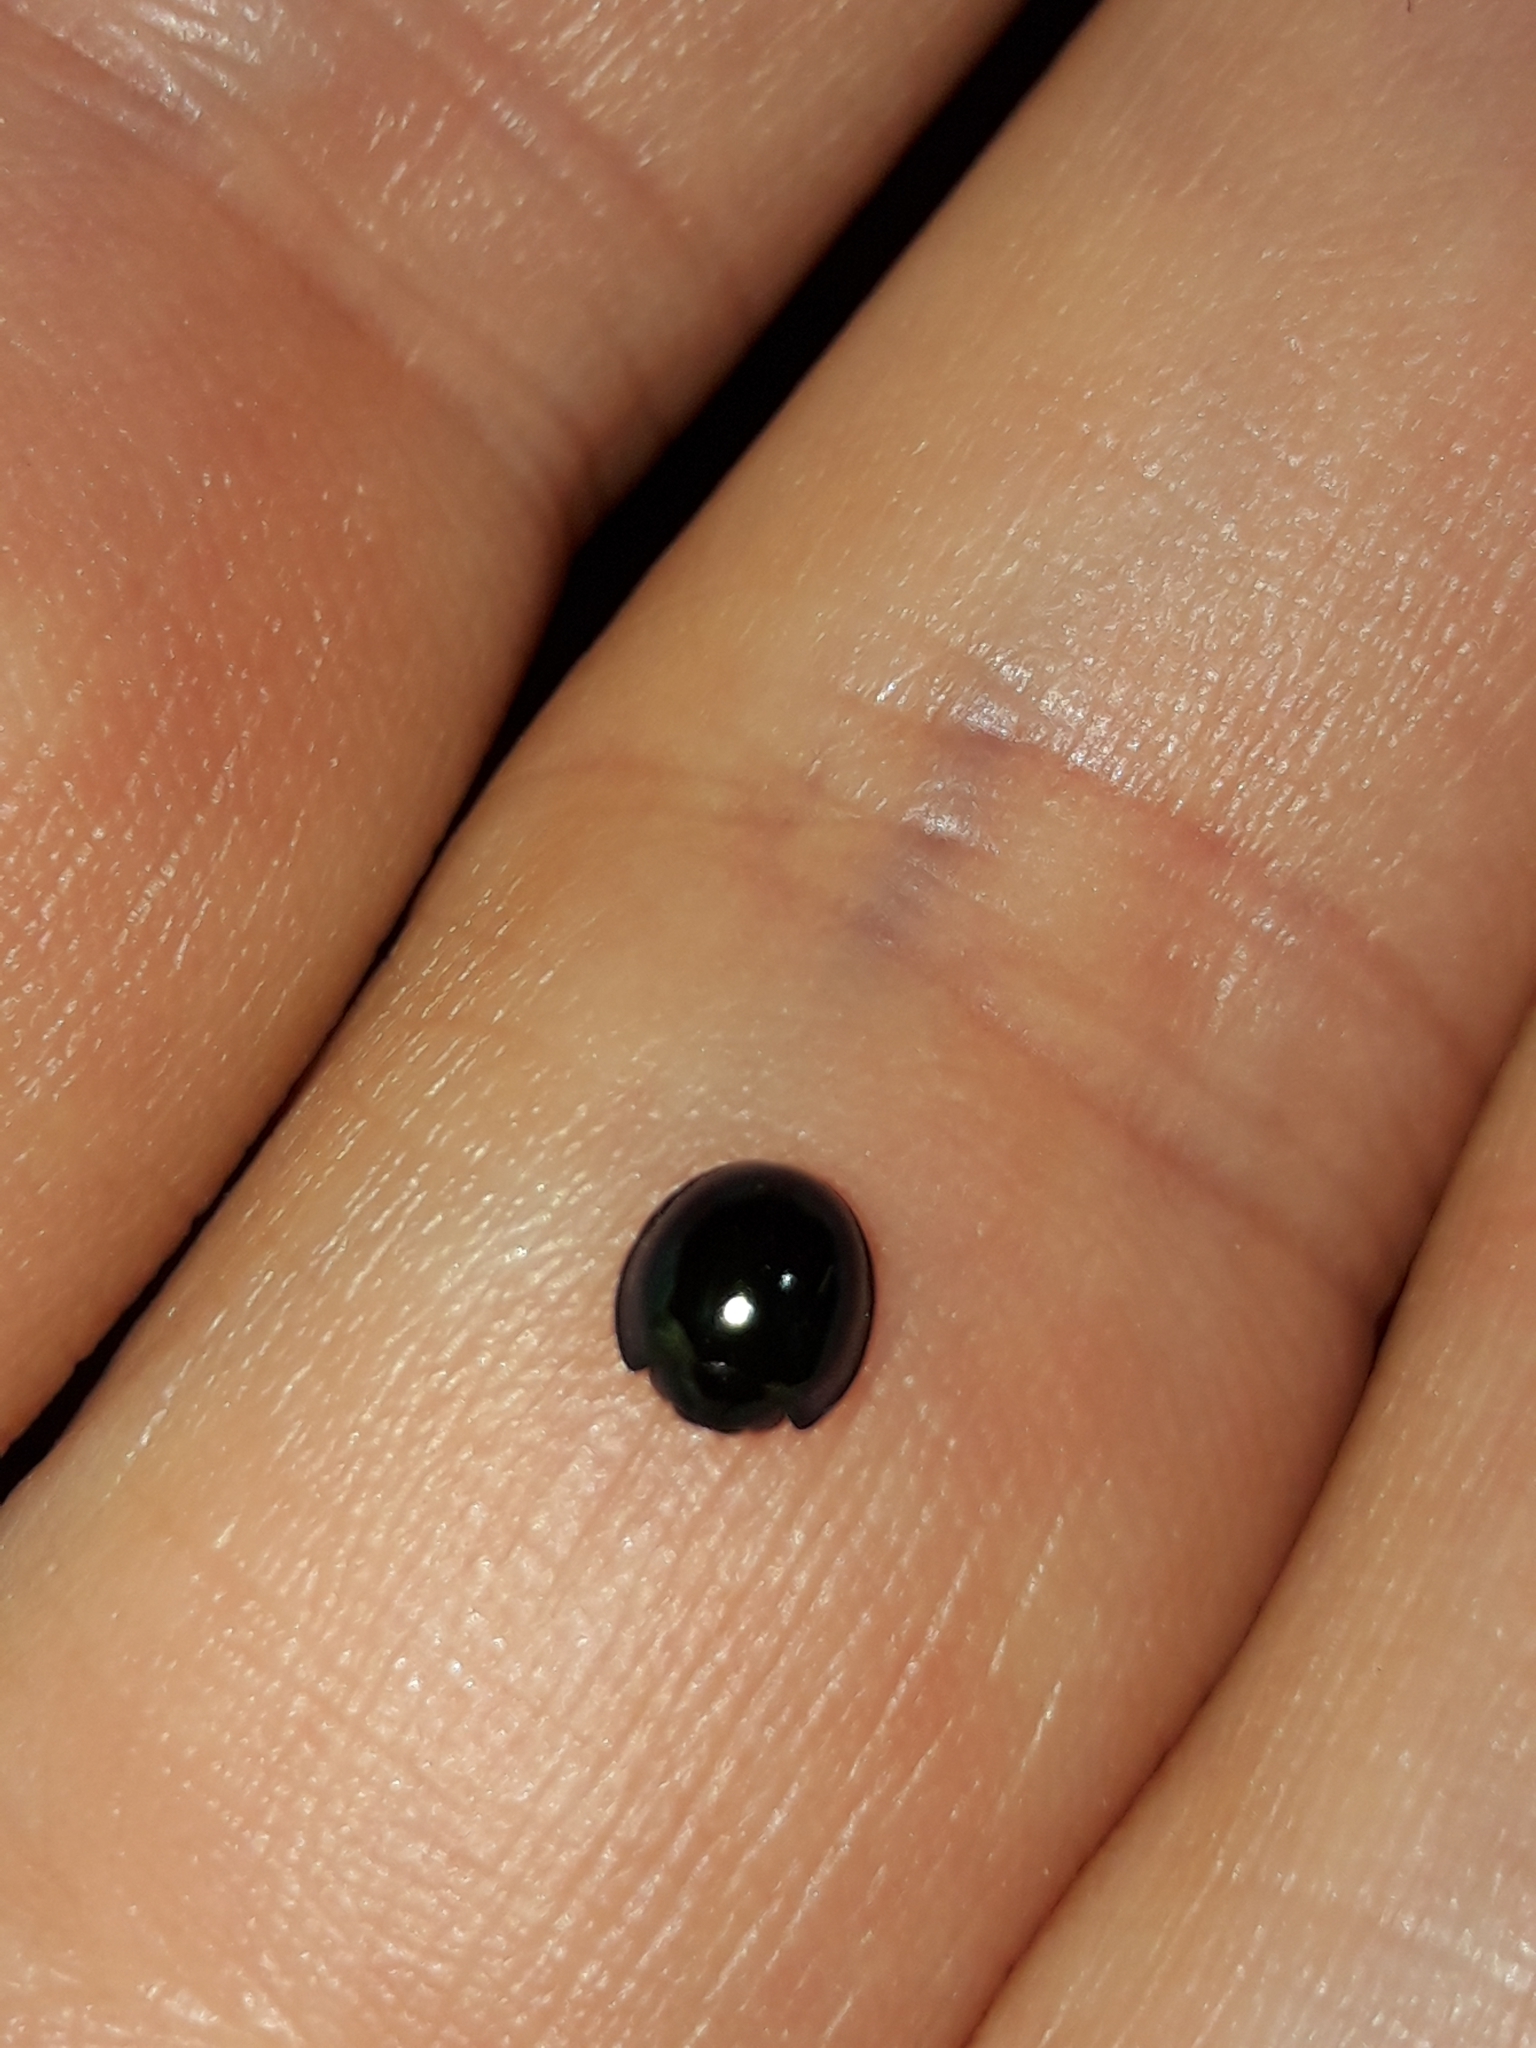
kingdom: Animalia
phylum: Arthropoda
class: Insecta
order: Coleoptera
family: Coccinellidae
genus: Halmus
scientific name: Halmus chalybeus
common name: Steel blue ladybird beetle
